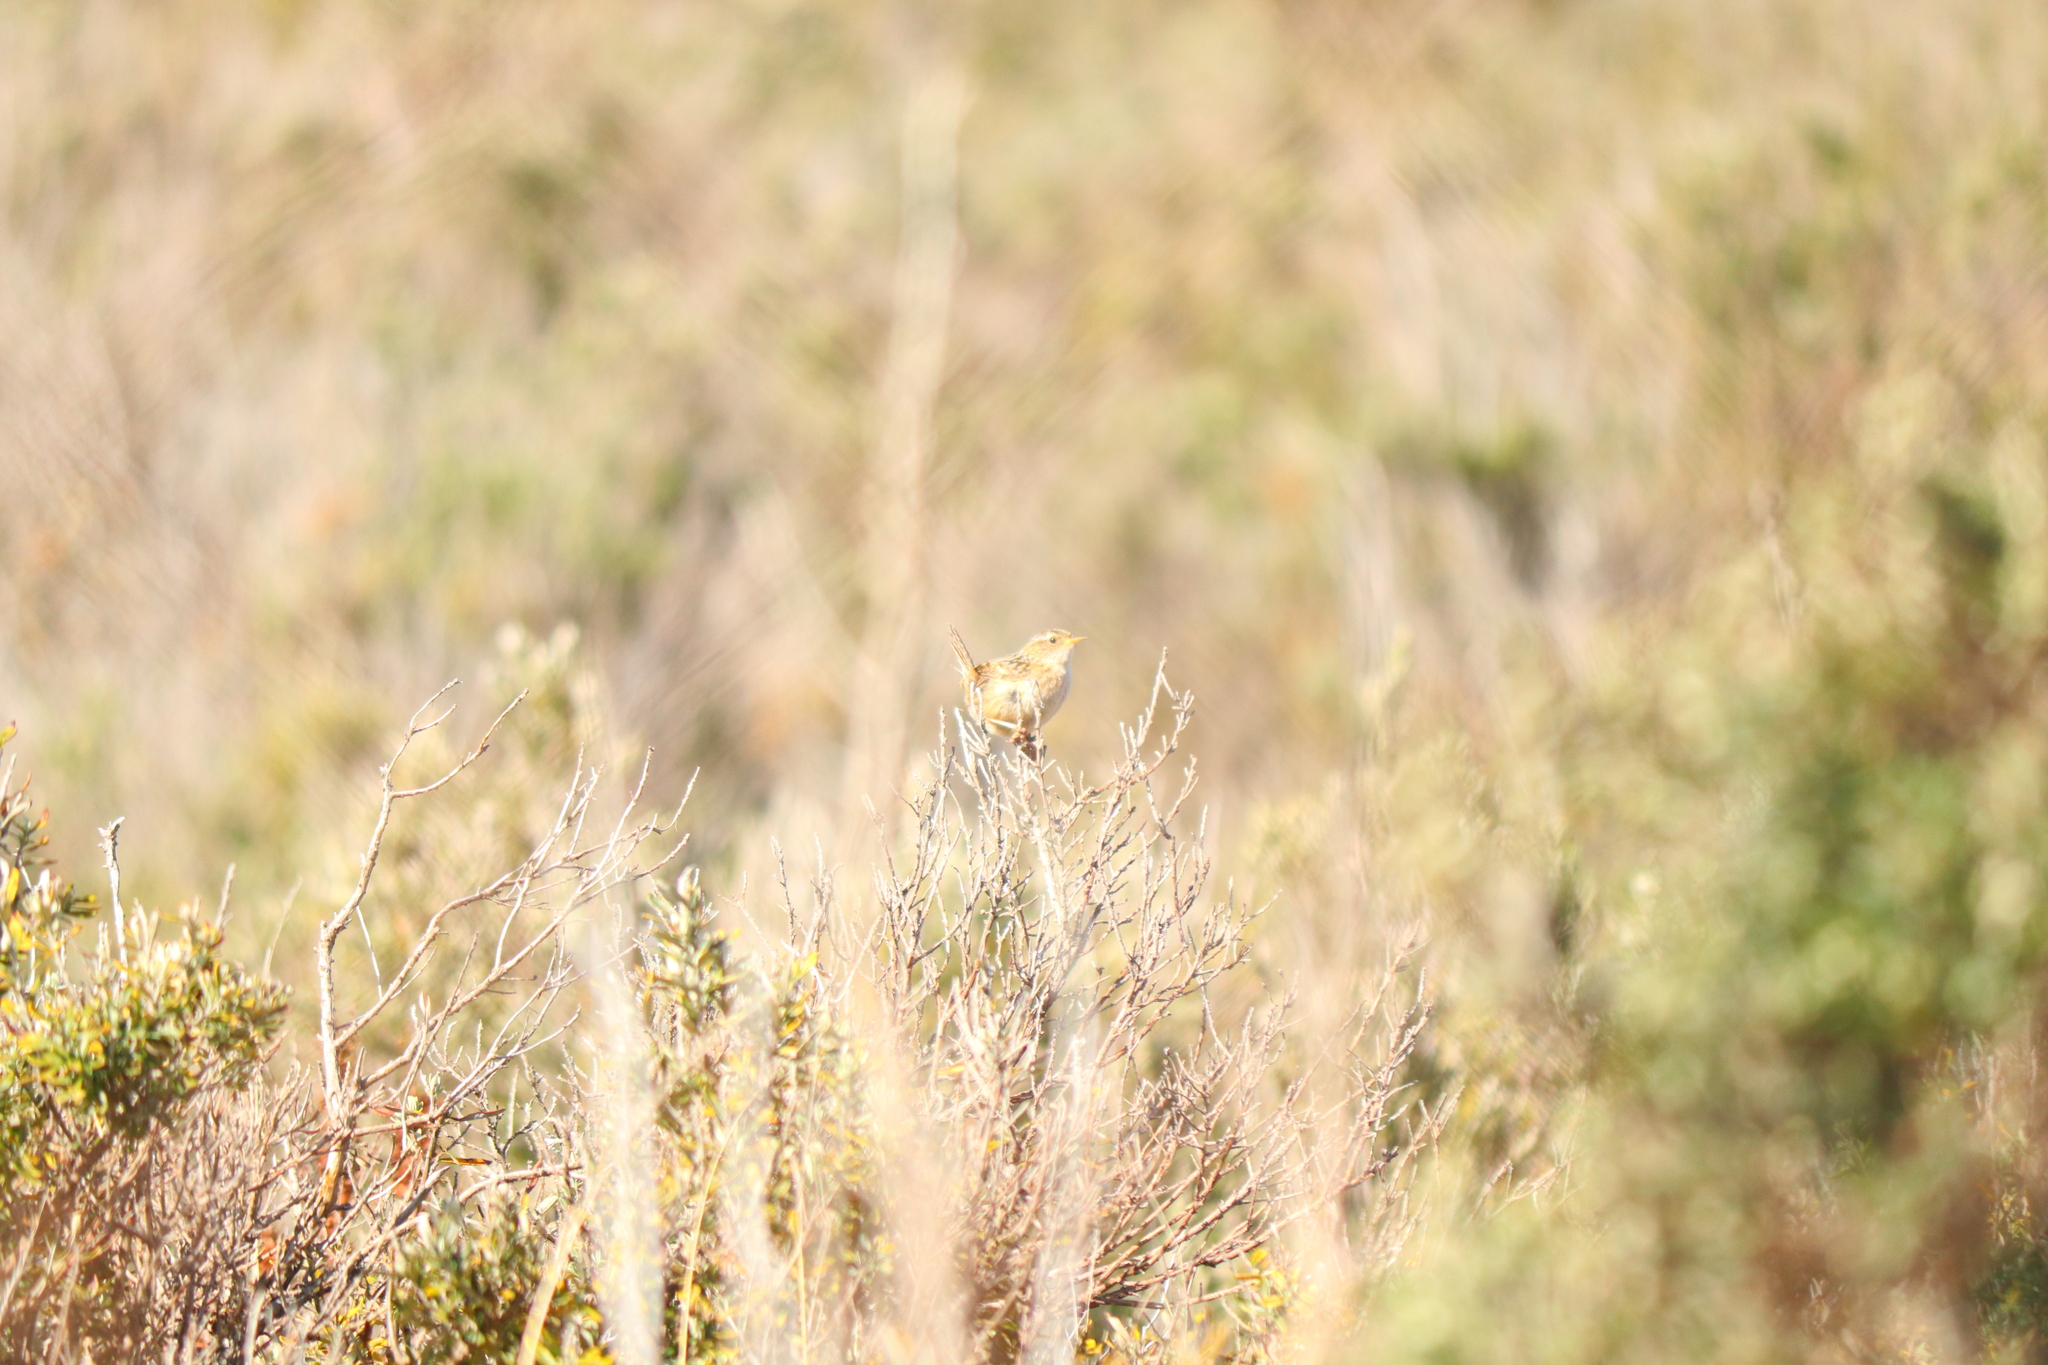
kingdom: Animalia
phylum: Chordata
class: Aves
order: Passeriformes
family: Troglodytidae
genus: Cistothorus
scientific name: Cistothorus platensis
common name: Sedge wren
